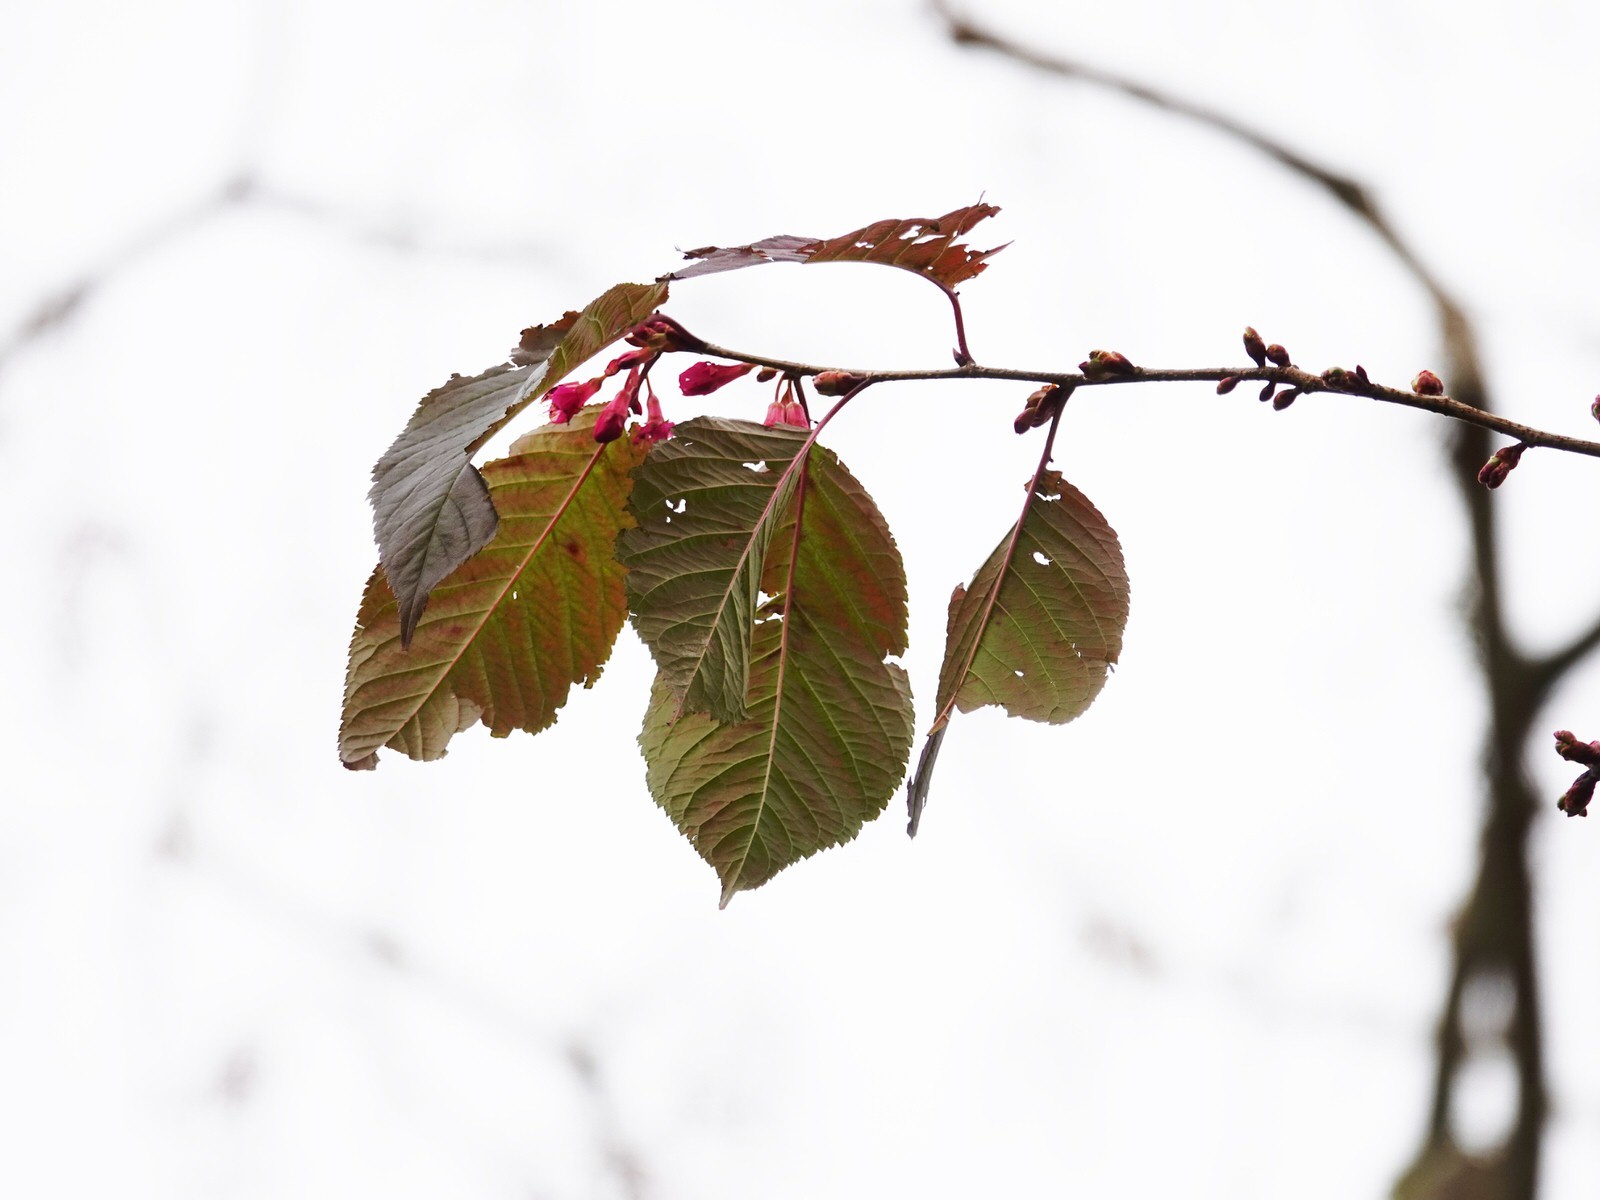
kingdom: Plantae
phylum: Tracheophyta
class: Magnoliopsida
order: Rosales
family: Rosaceae
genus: Prunus
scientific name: Prunus campanulata
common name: Taiwan flowering cherry
